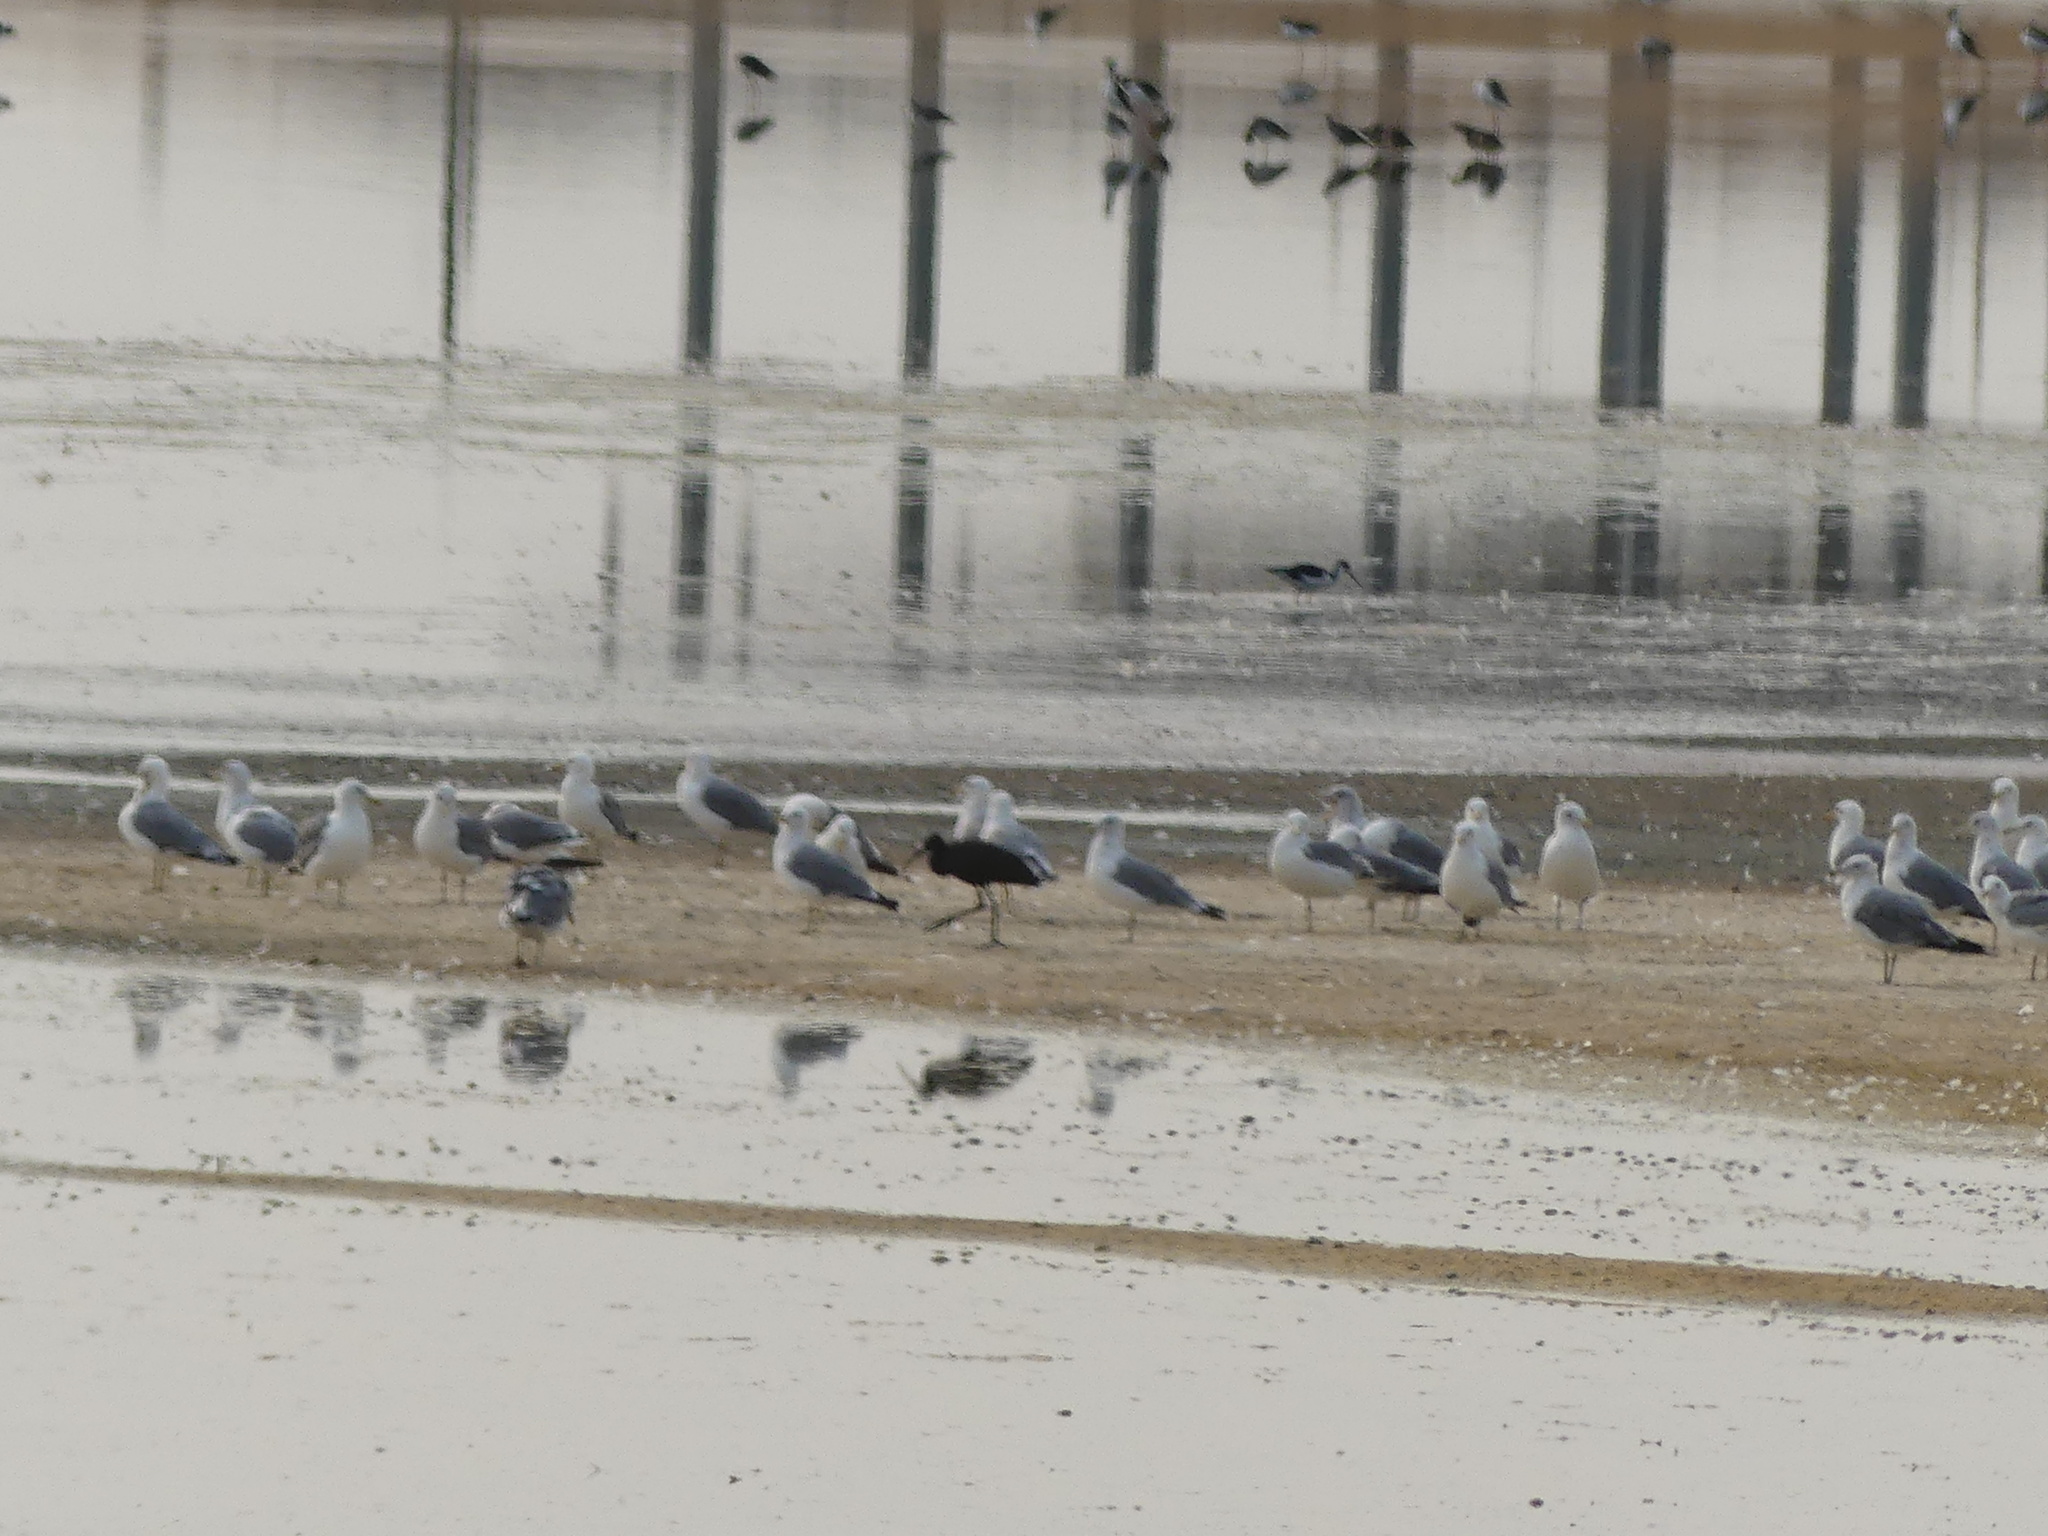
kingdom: Animalia
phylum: Chordata
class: Aves
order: Charadriiformes
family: Laridae
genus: Larus
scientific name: Larus californicus
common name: California gull
